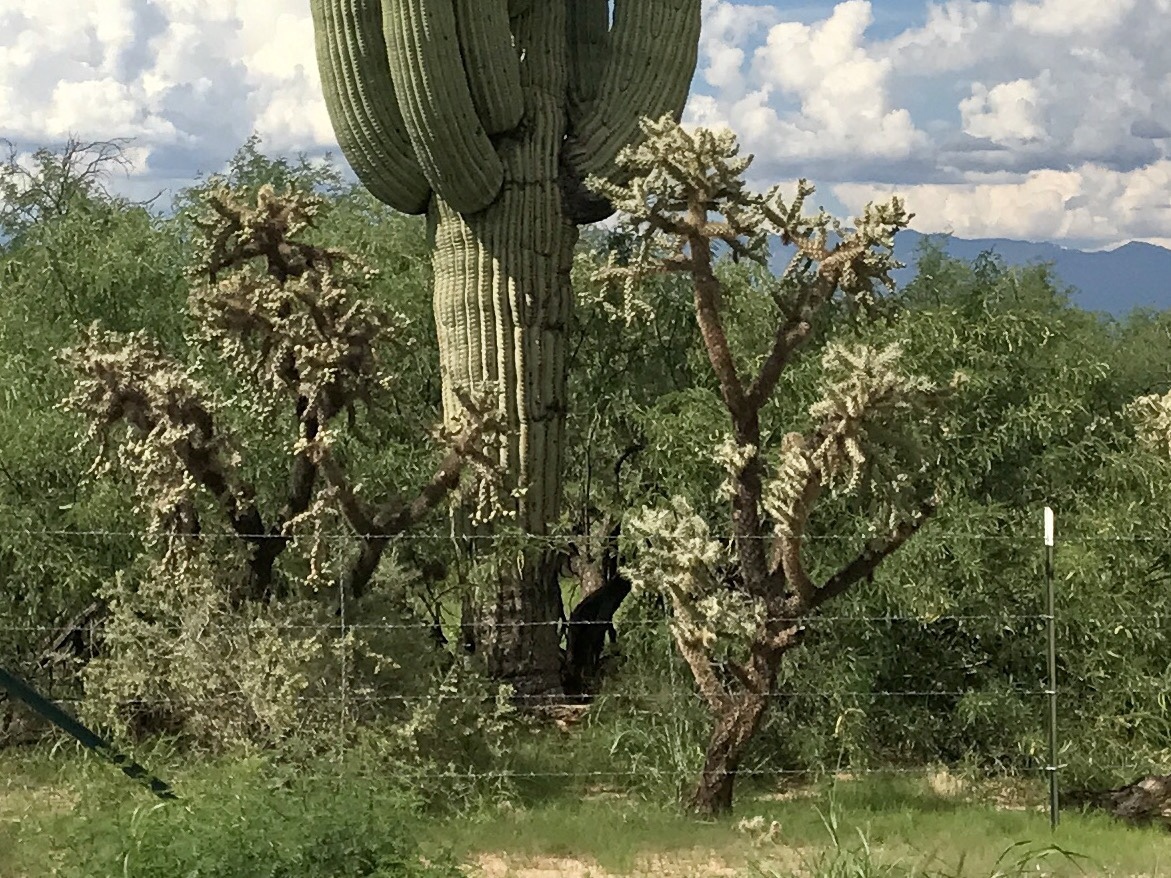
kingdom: Plantae
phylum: Tracheophyta
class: Magnoliopsida
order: Caryophyllales
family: Cactaceae
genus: Cylindropuntia
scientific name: Cylindropuntia fulgida
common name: Jumping cholla
